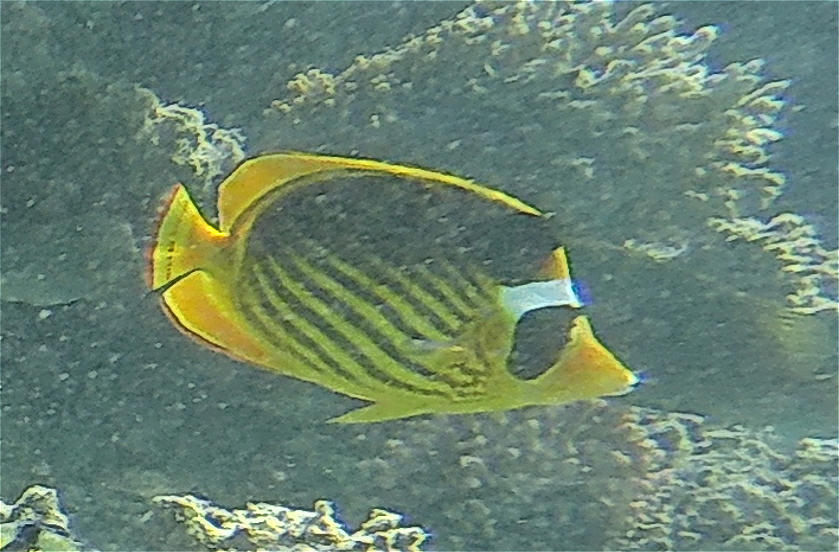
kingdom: Animalia
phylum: Chordata
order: Perciformes
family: Chaetodontidae
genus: Chaetodon
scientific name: Chaetodon fasciatus
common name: Diagonal butterflyfish
